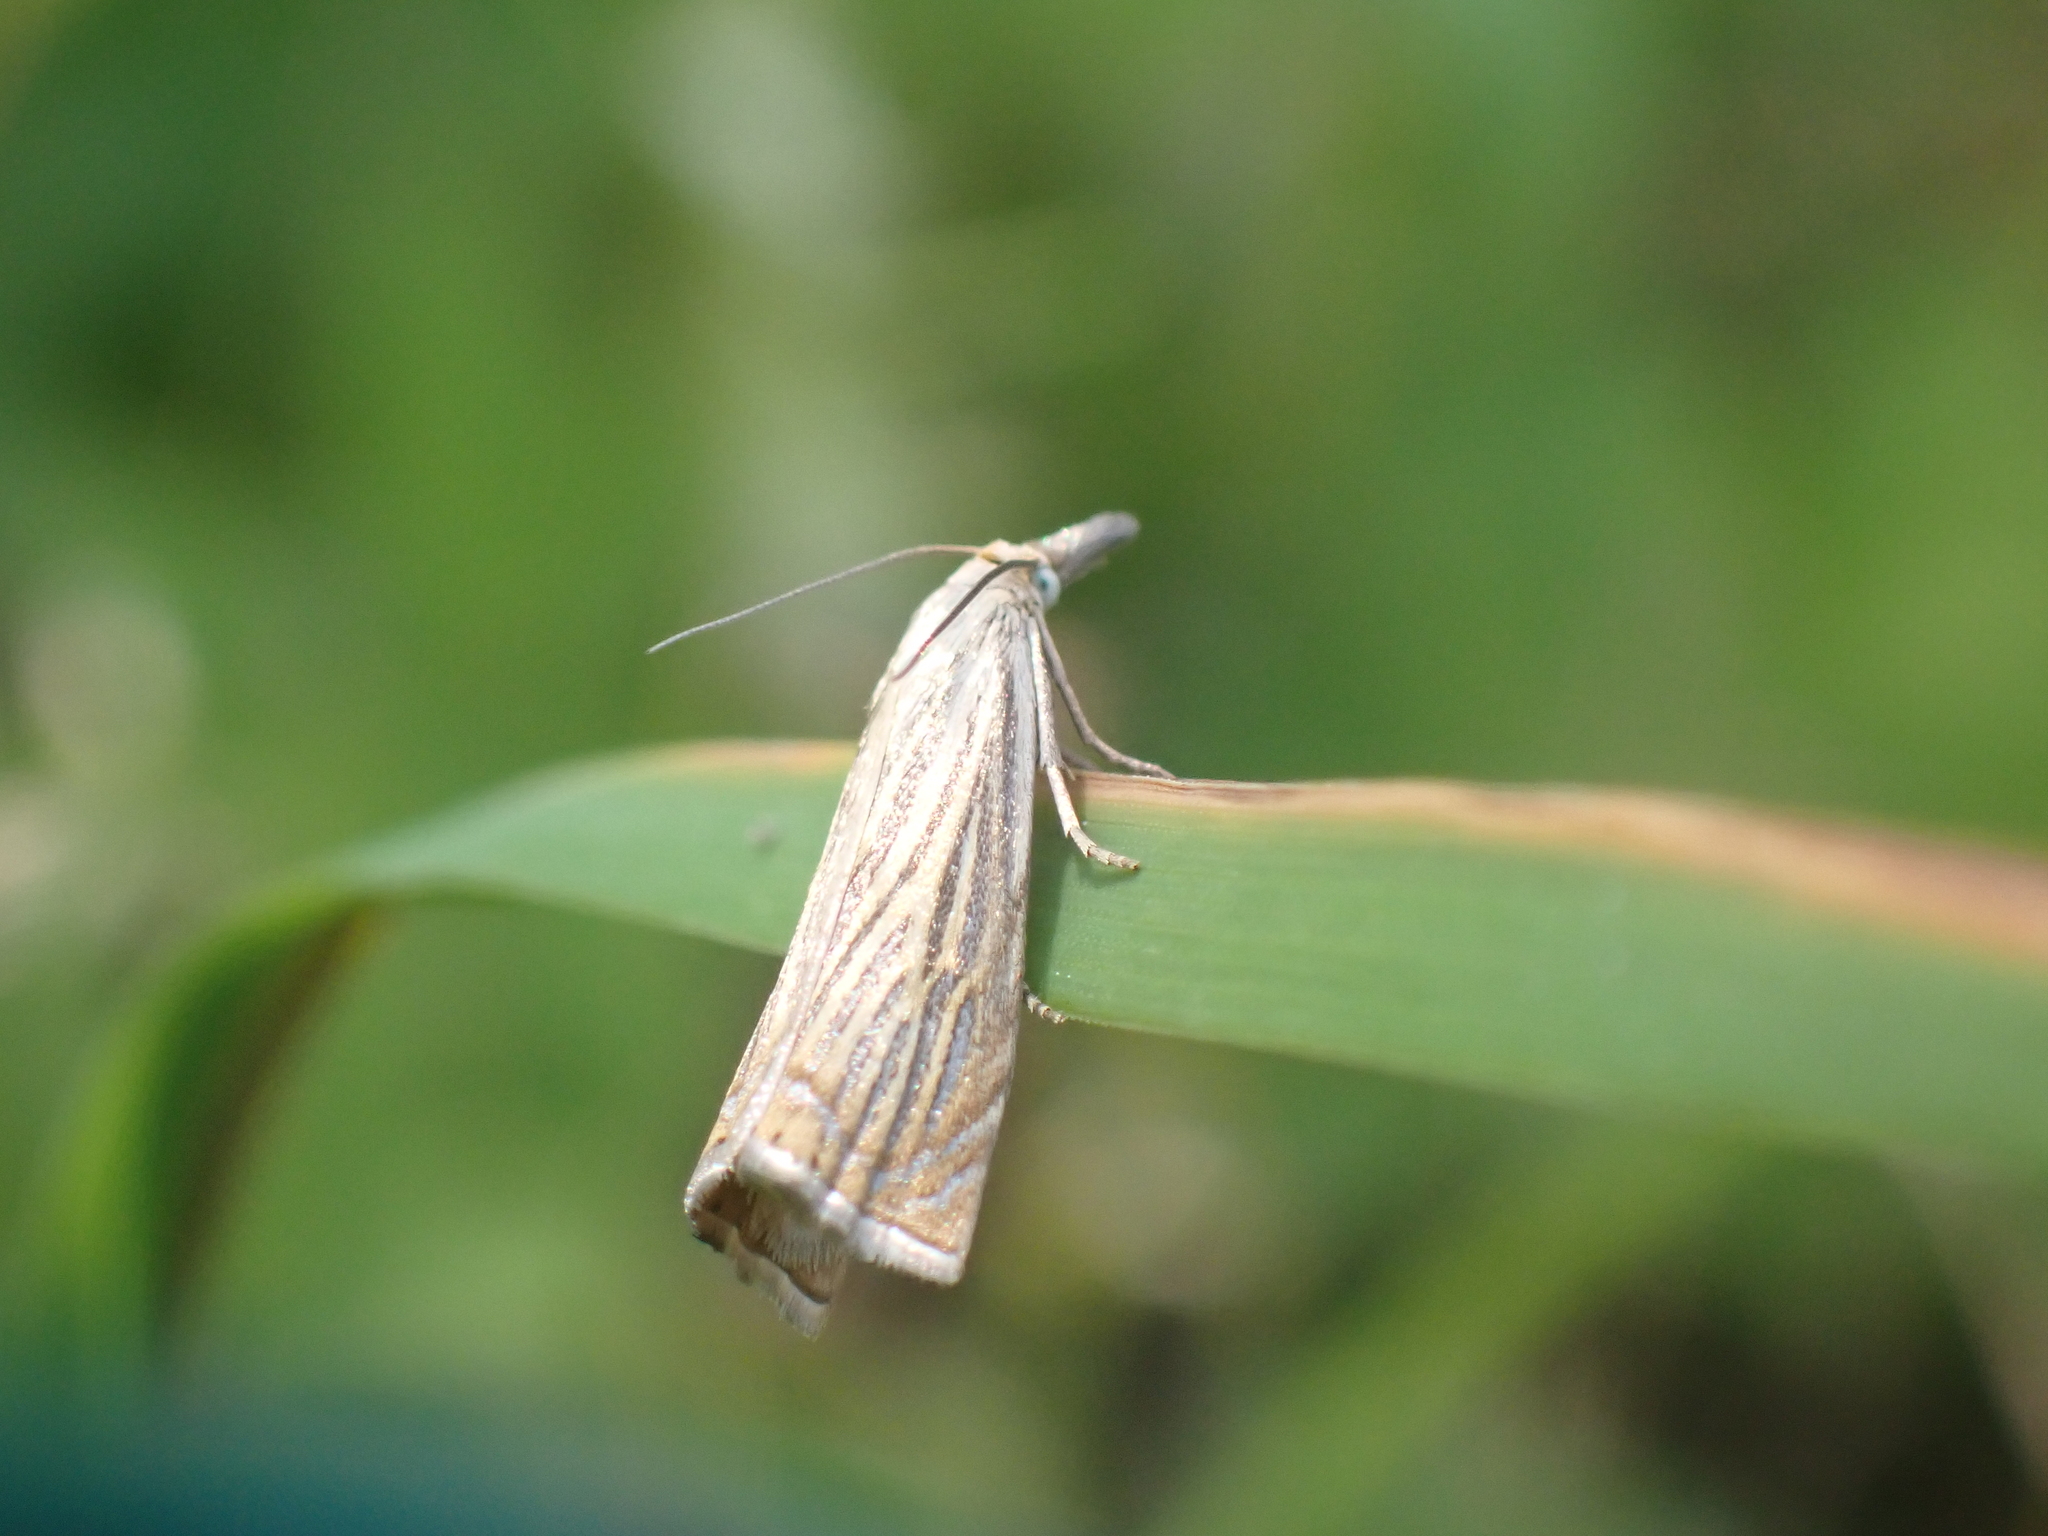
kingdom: Animalia
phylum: Arthropoda
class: Insecta
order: Lepidoptera
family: Crambidae
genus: Chrysoteuchia
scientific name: Chrysoteuchia culmella
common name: Garden grass-veneer
